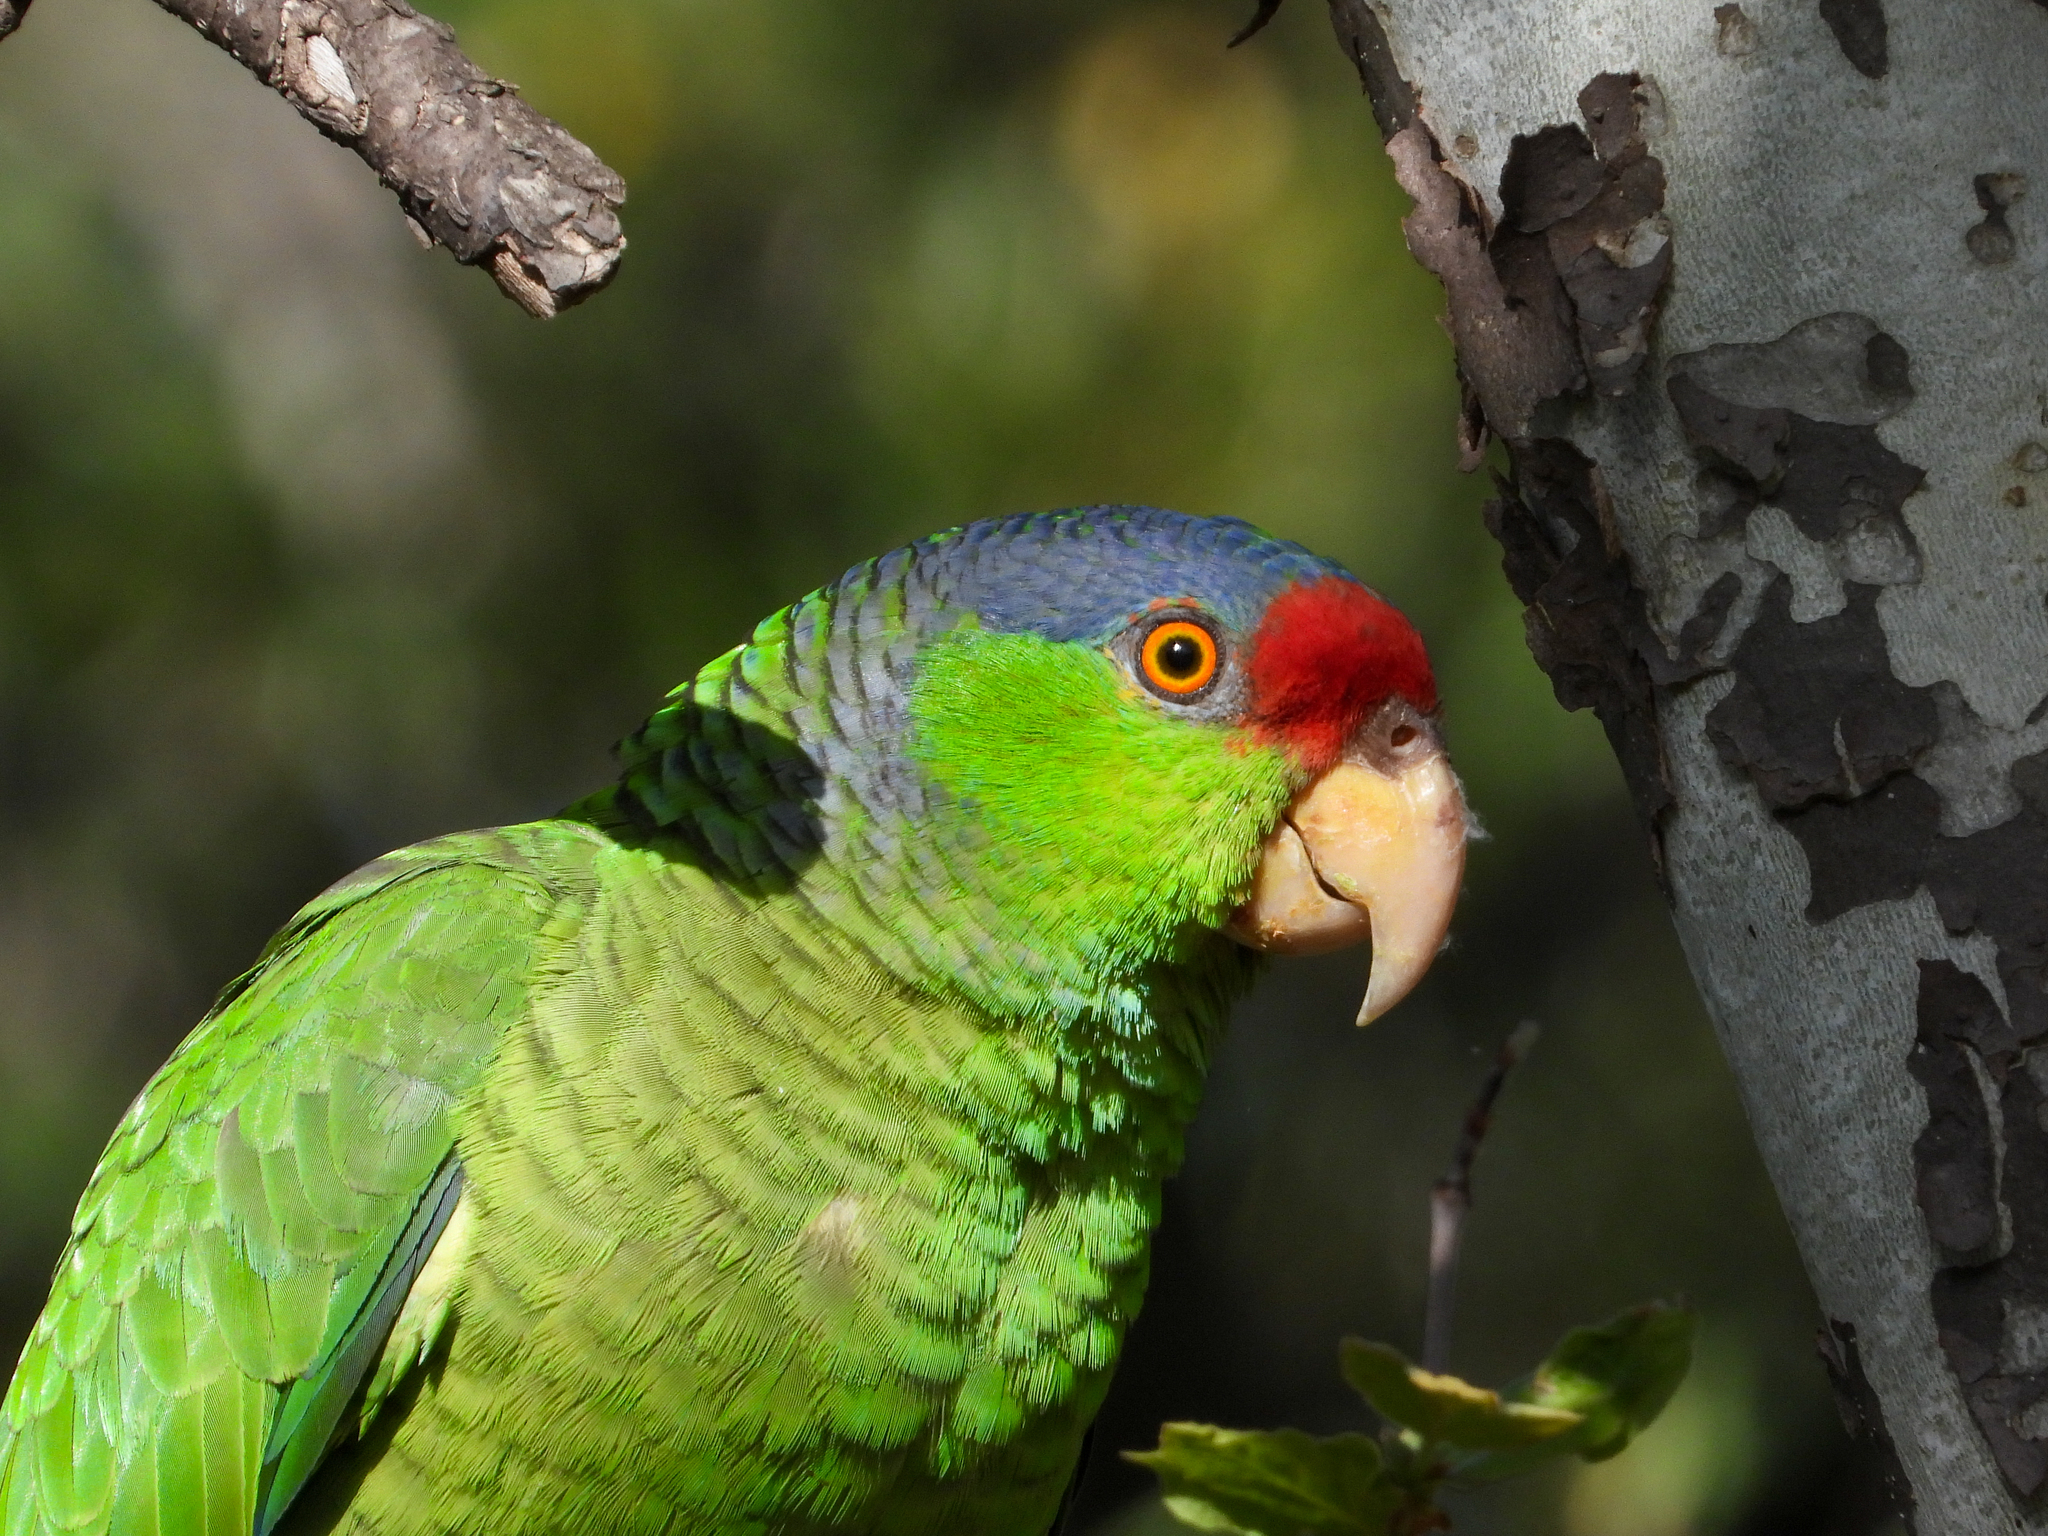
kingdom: Animalia
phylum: Chordata
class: Aves
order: Psittaciformes
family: Psittacidae
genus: Amazona
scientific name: Amazona
